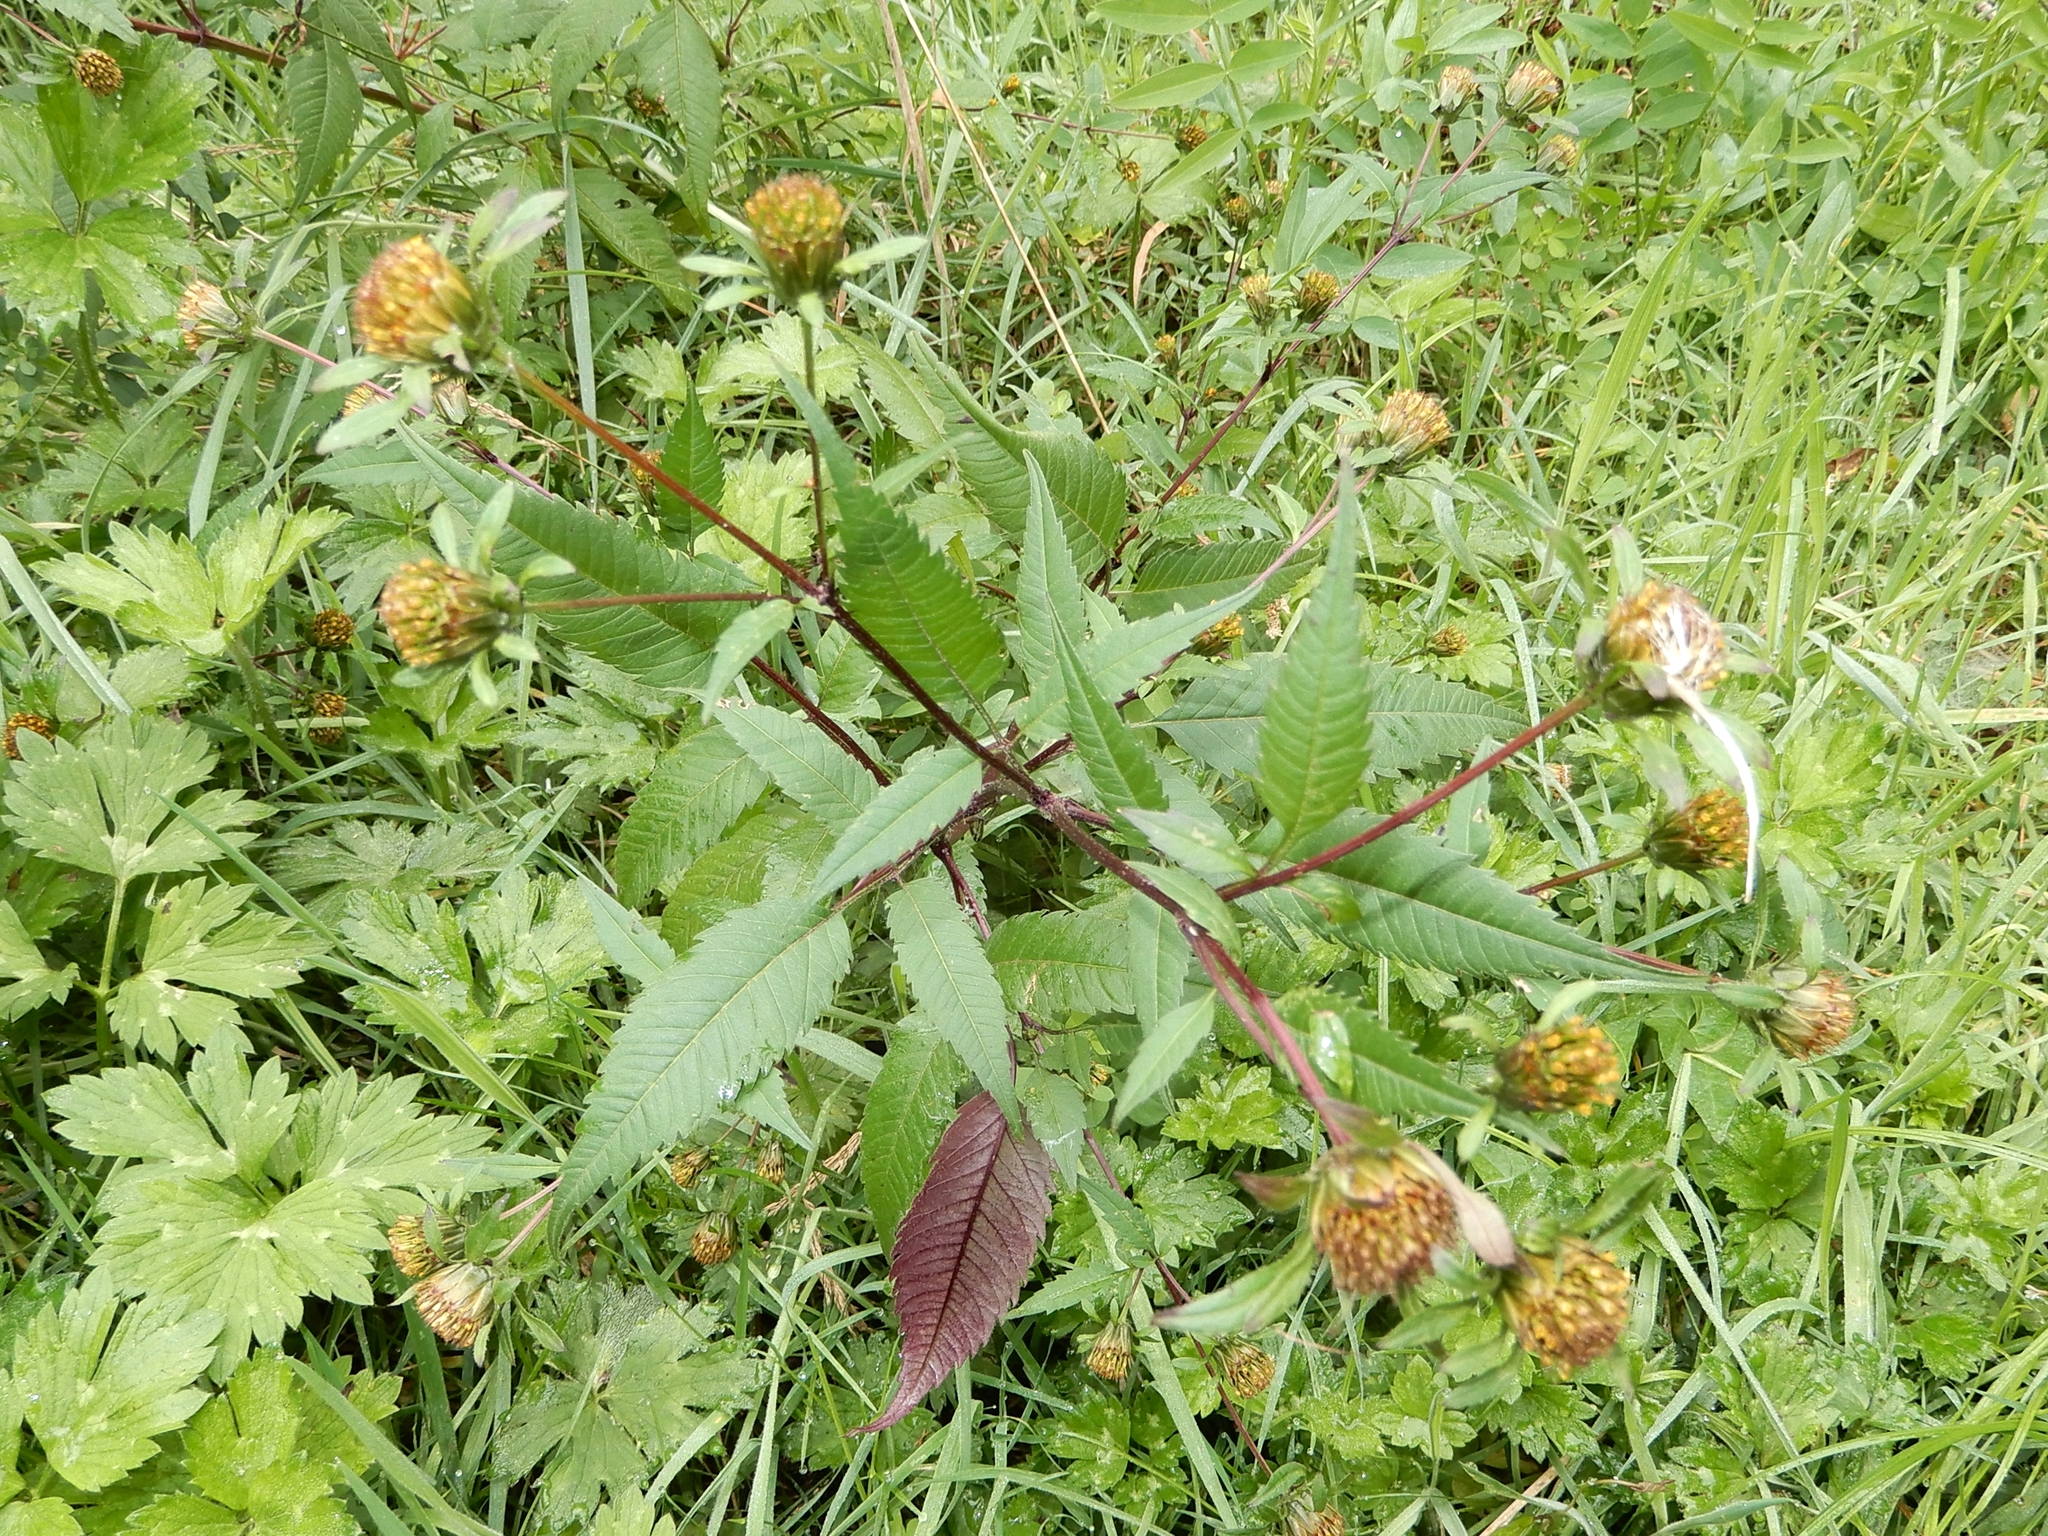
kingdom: Plantae
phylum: Tracheophyta
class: Magnoliopsida
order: Asterales
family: Asteraceae
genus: Bidens
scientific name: Bidens frondosa
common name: Beggarticks
